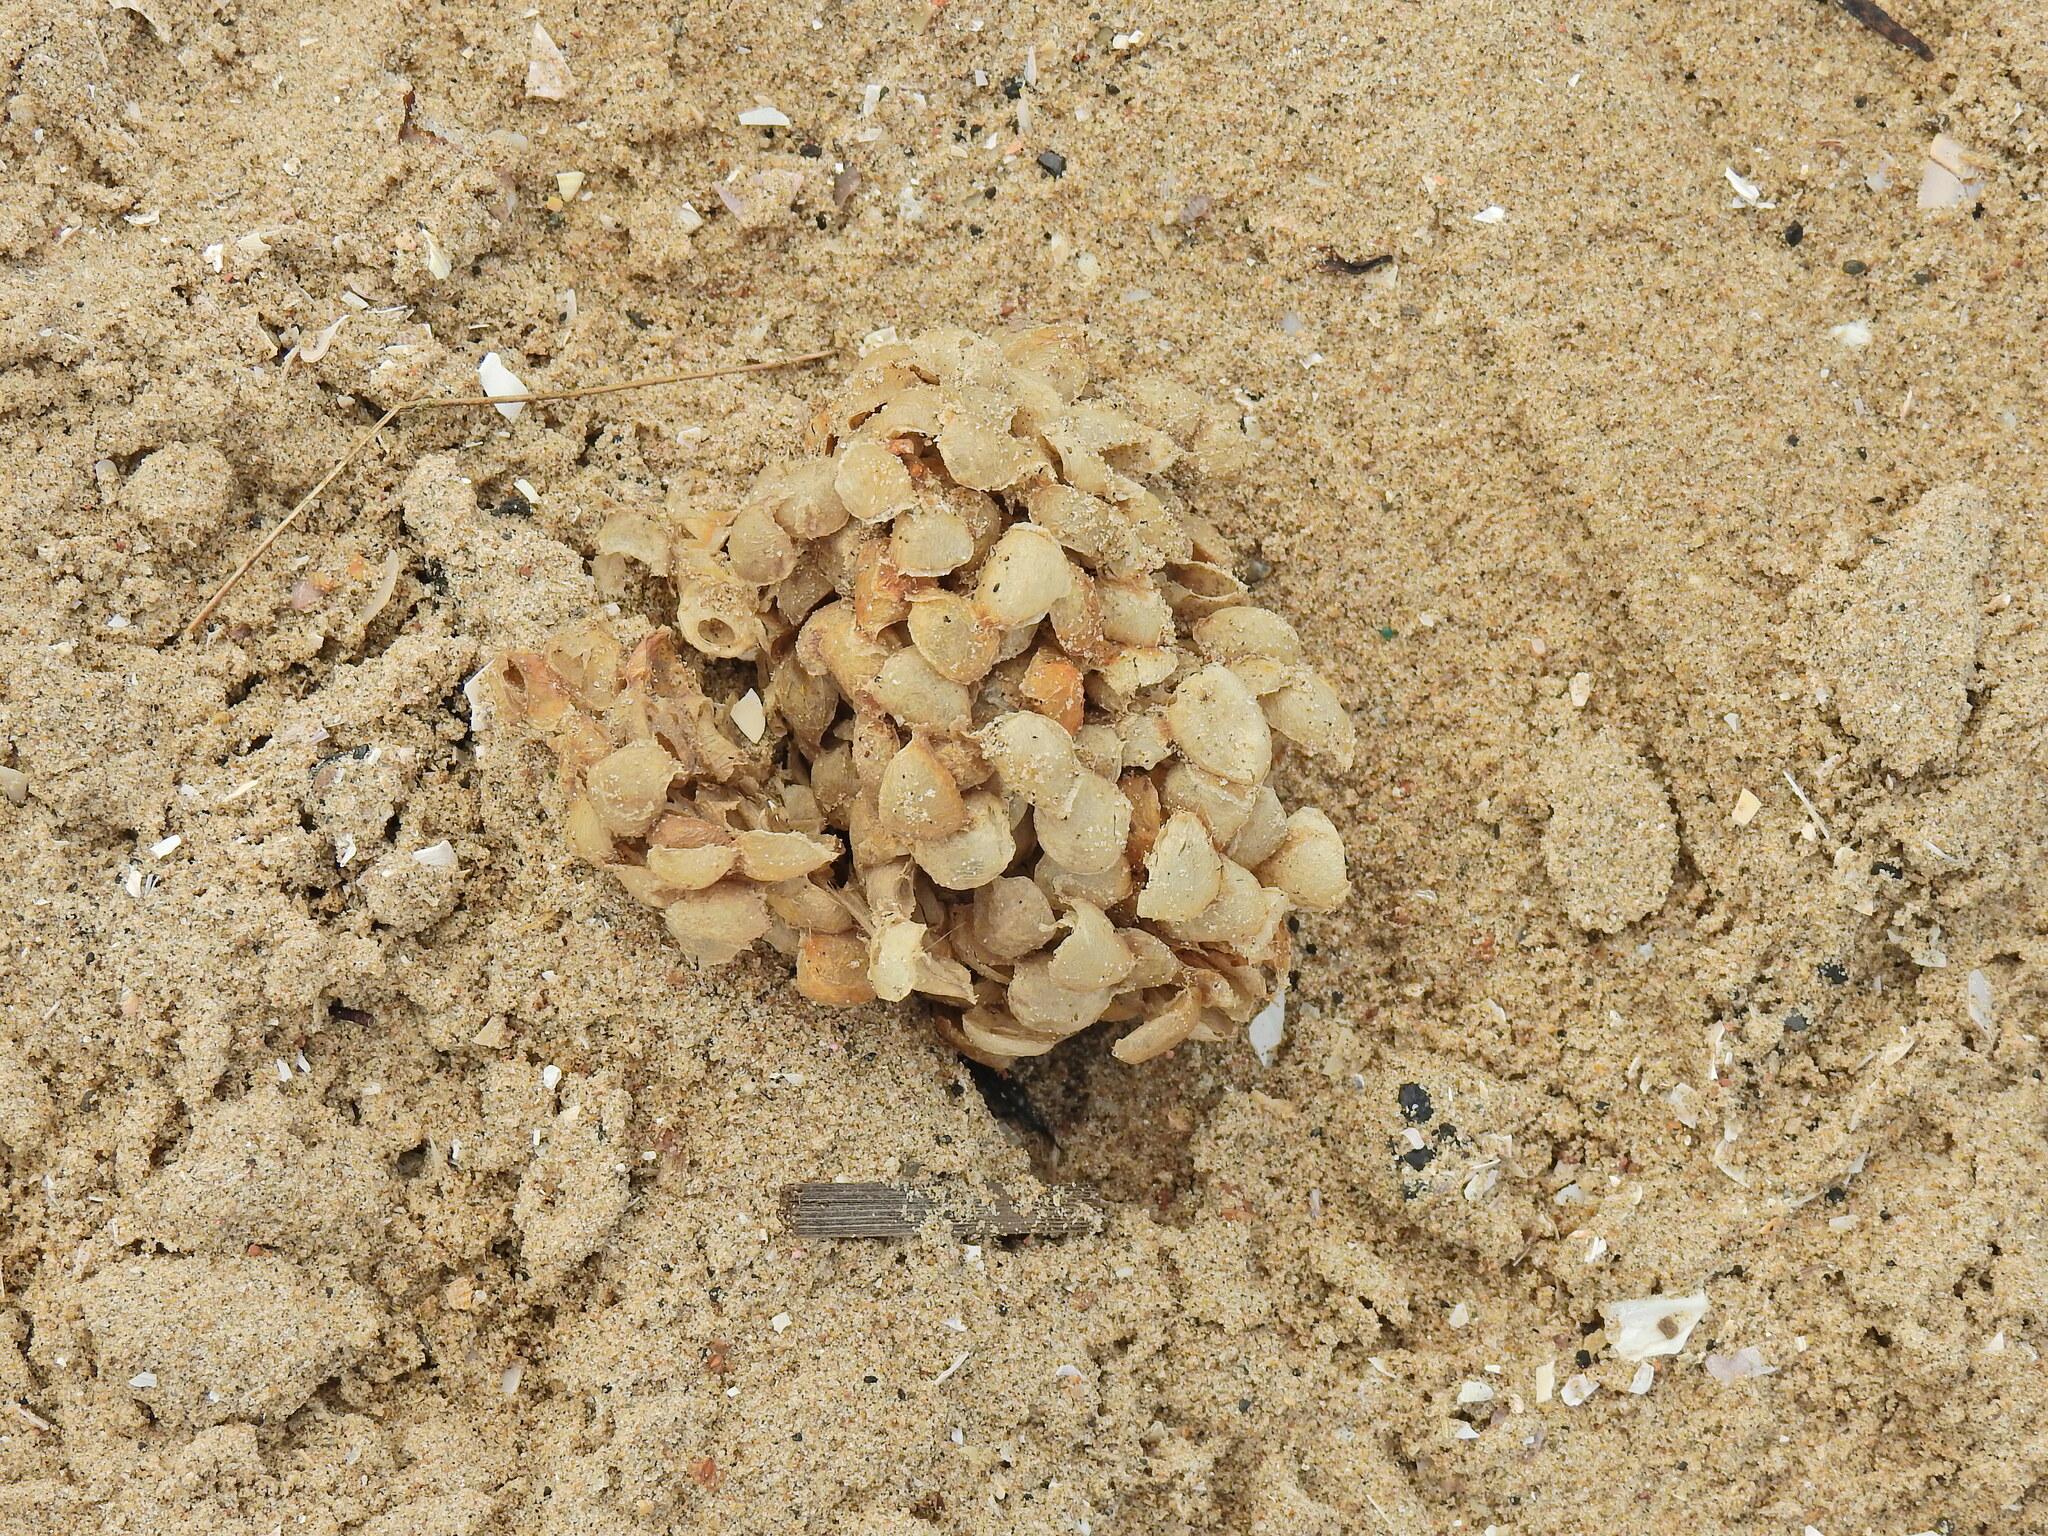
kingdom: Animalia
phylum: Mollusca
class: Gastropoda
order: Neogastropoda
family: Buccinidae
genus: Buccinum
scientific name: Buccinum undatum
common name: Common whelk
